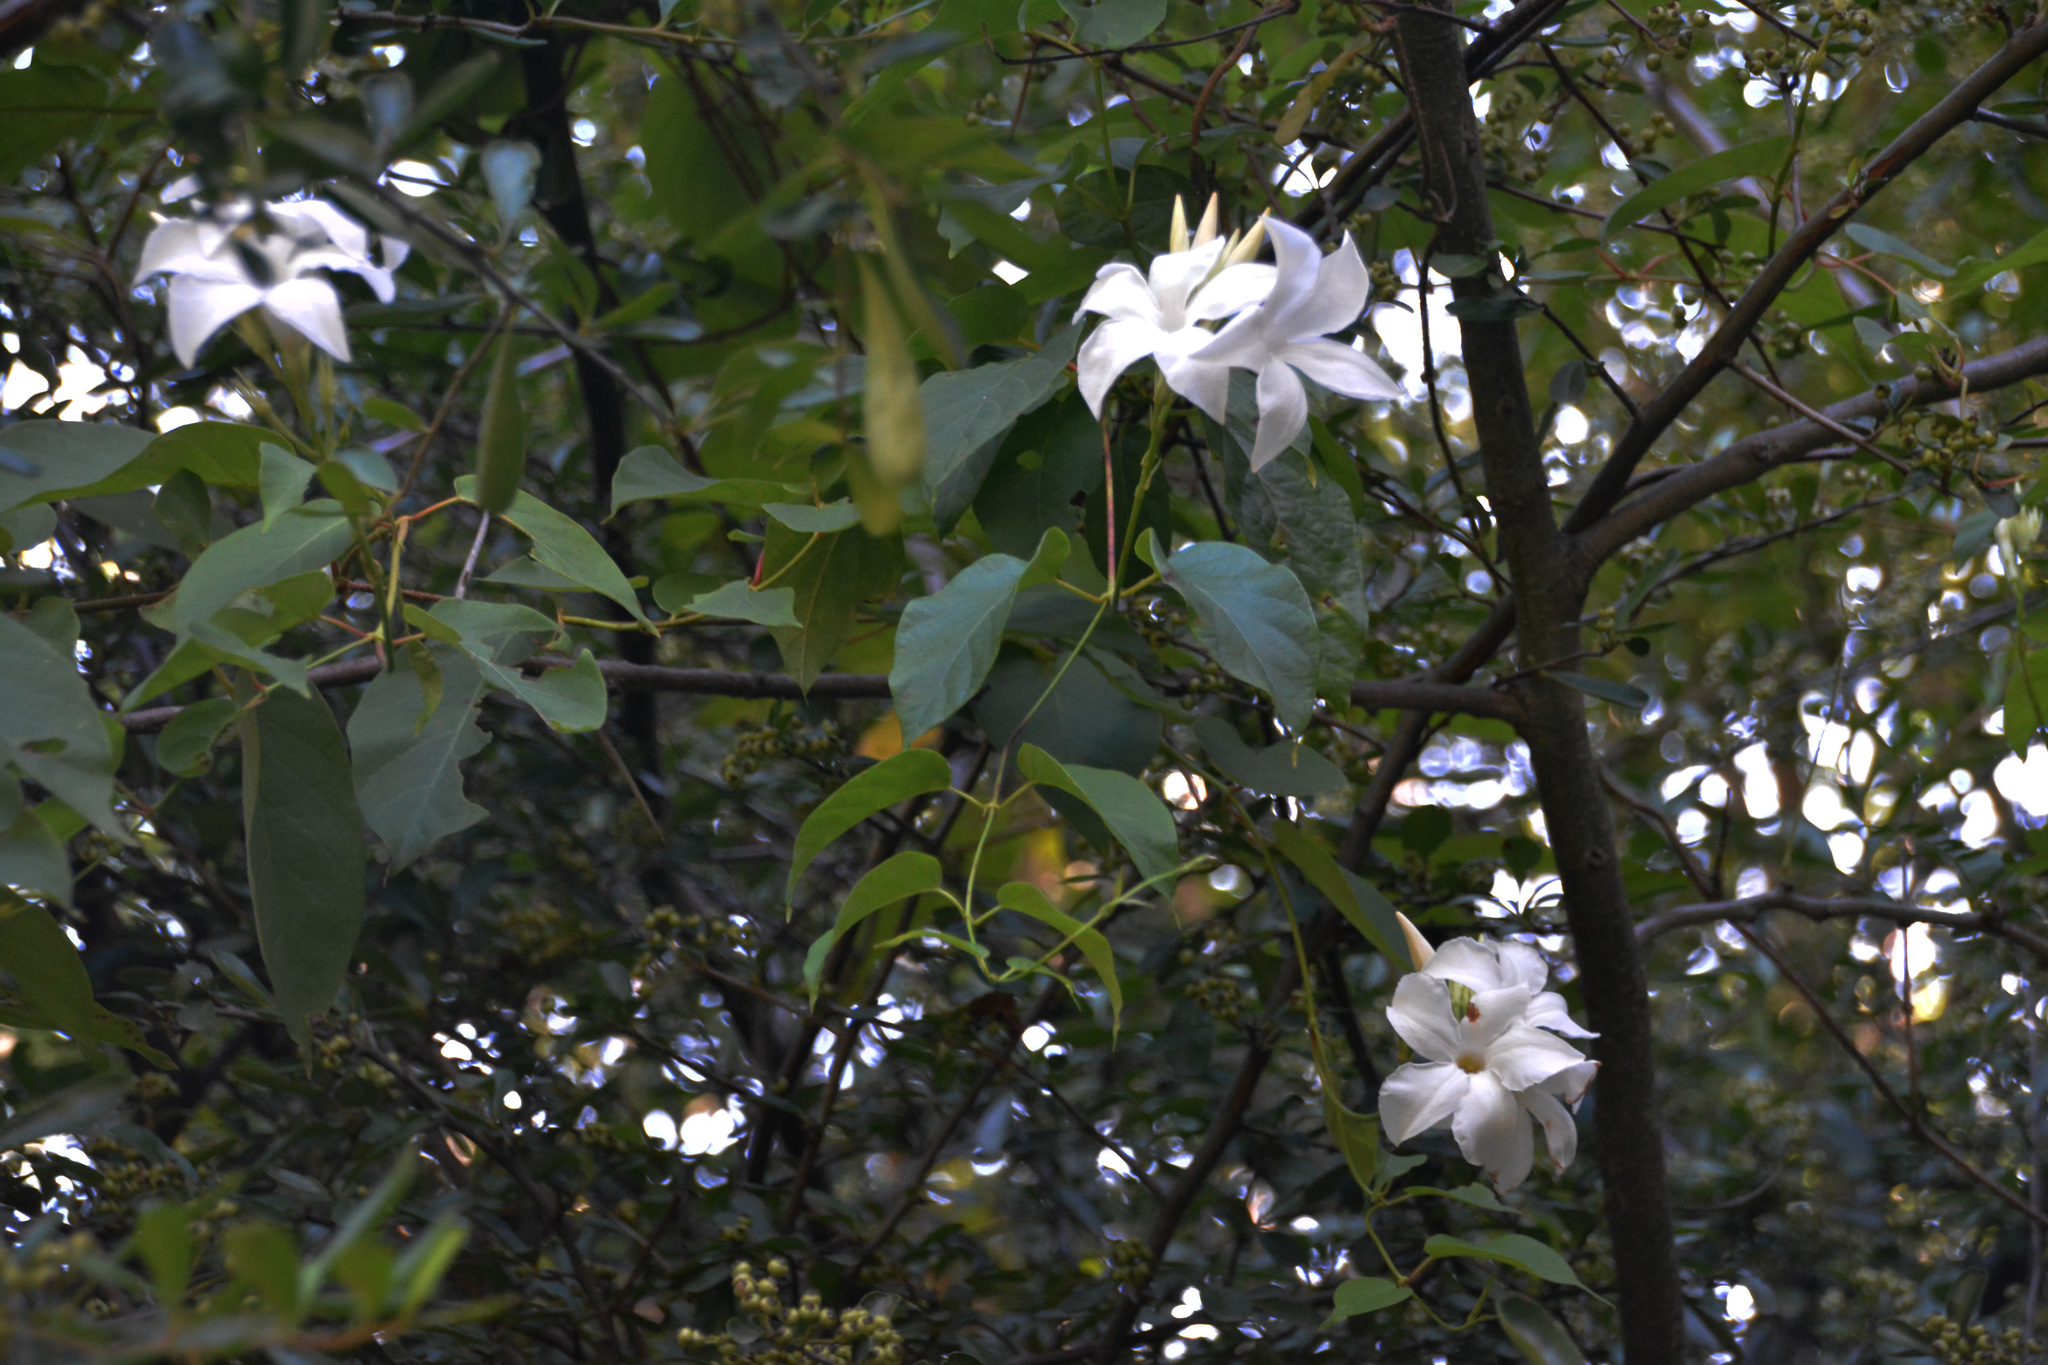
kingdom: Plantae
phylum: Tracheophyta
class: Magnoliopsida
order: Gentianales
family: Apocynaceae
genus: Mandevilla
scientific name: Mandevilla laxa
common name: Chilean-jasmine
